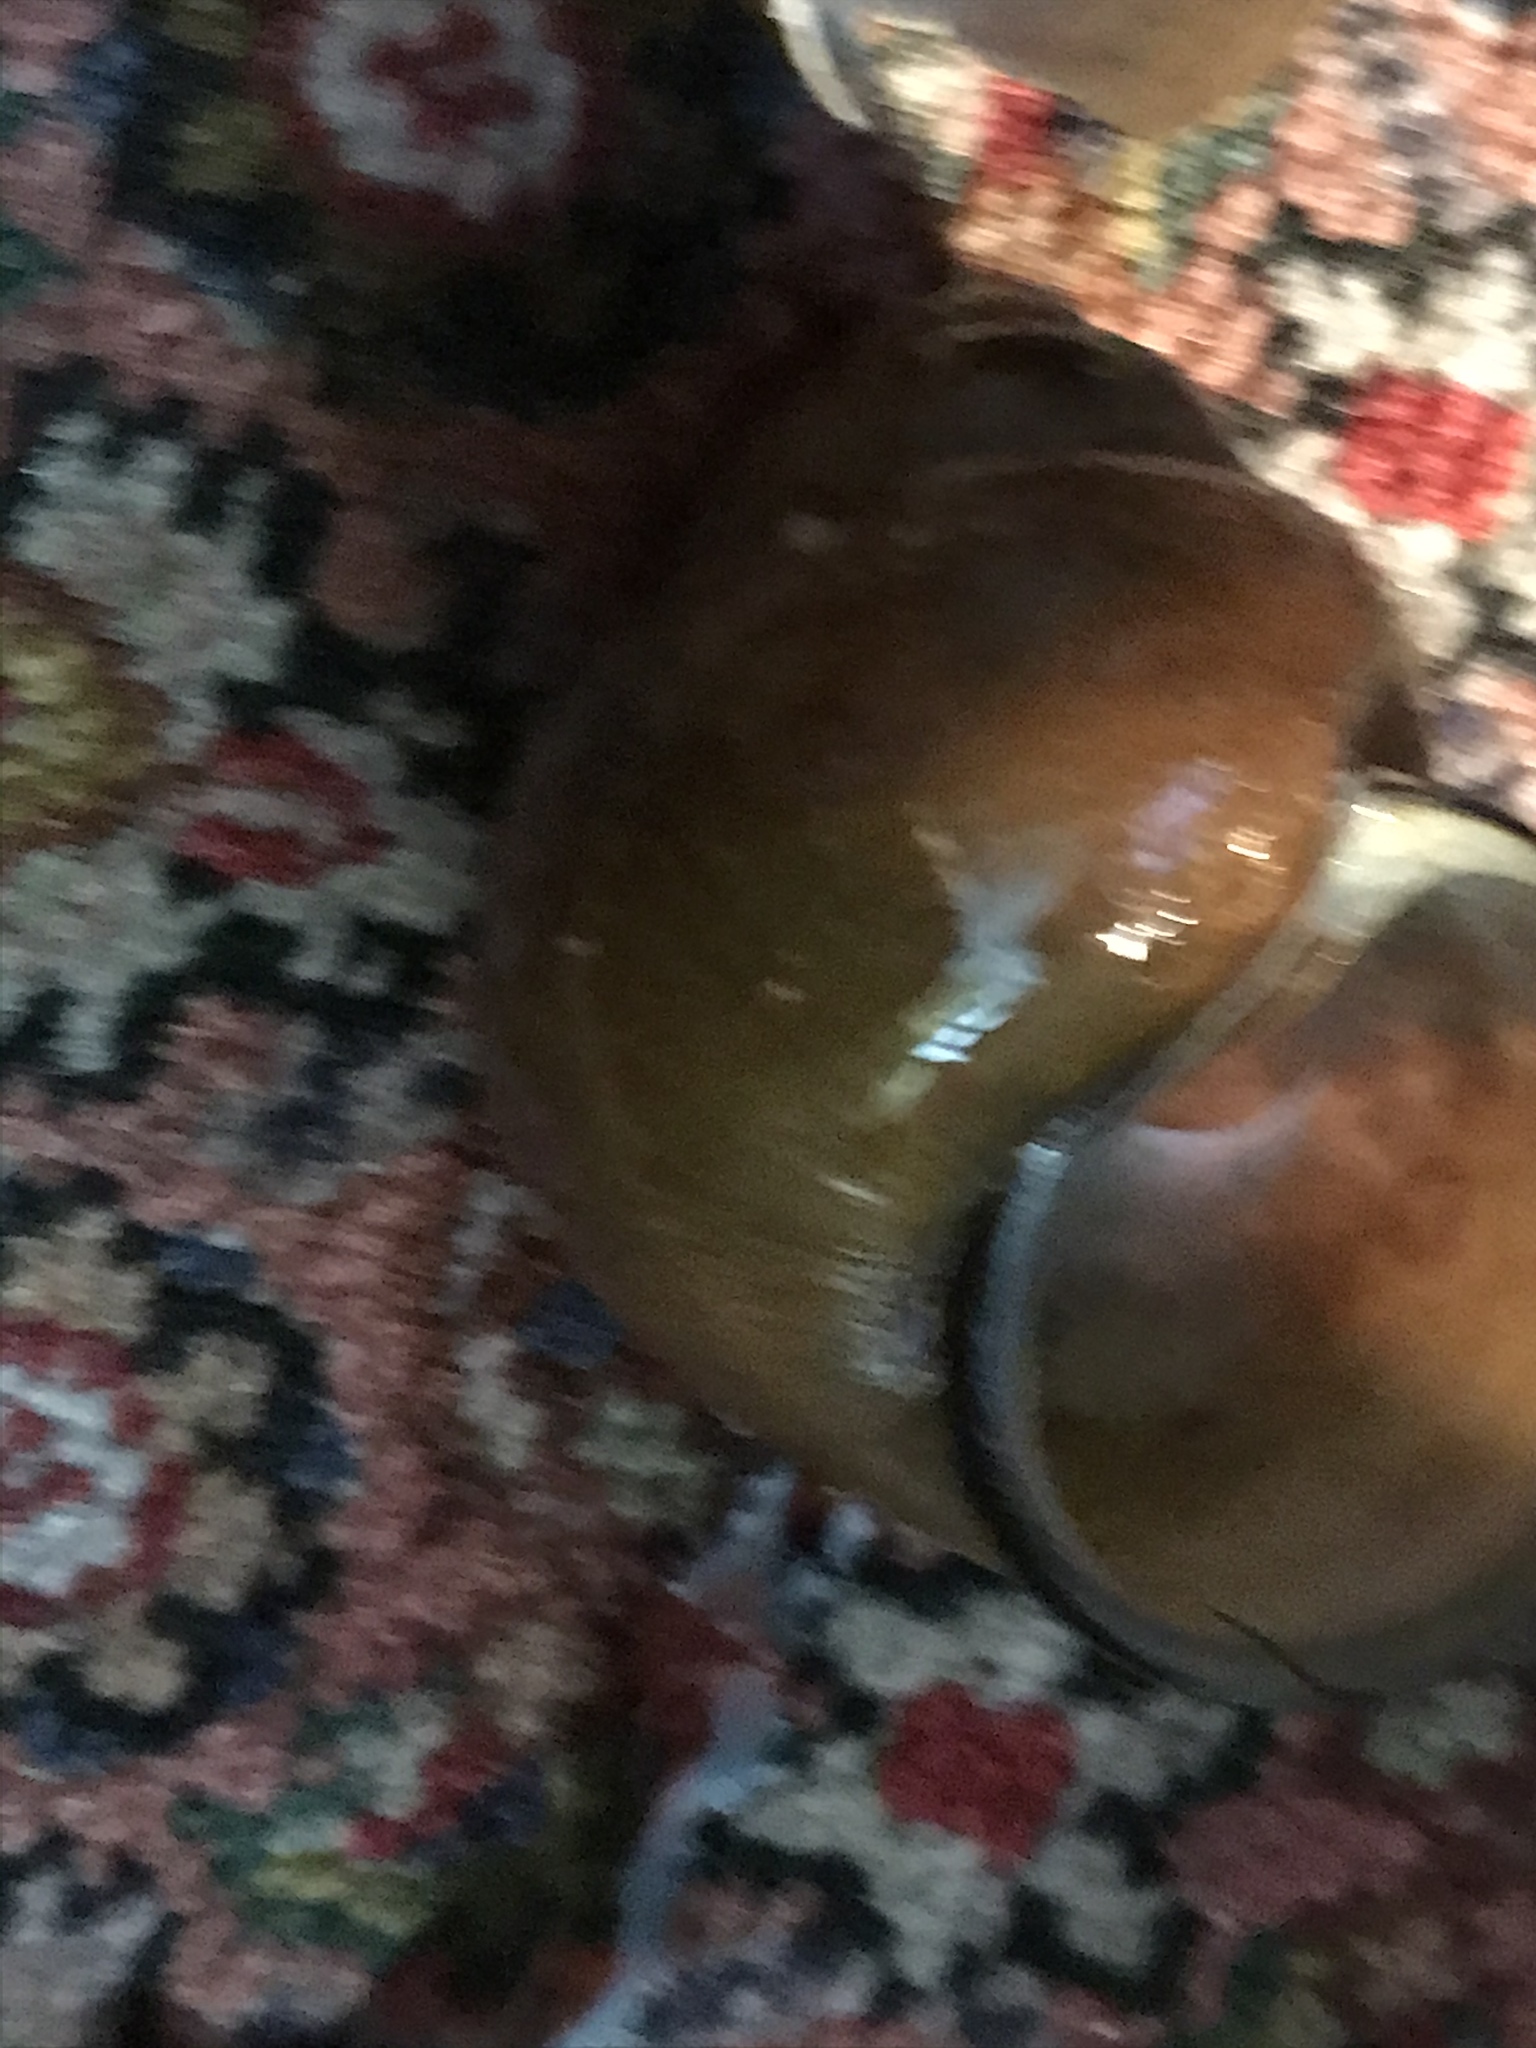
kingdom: Animalia
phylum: Mollusca
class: Gastropoda
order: Architaenioglossa
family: Viviparidae
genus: Cipangopaludina
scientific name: Cipangopaludina chinensis
